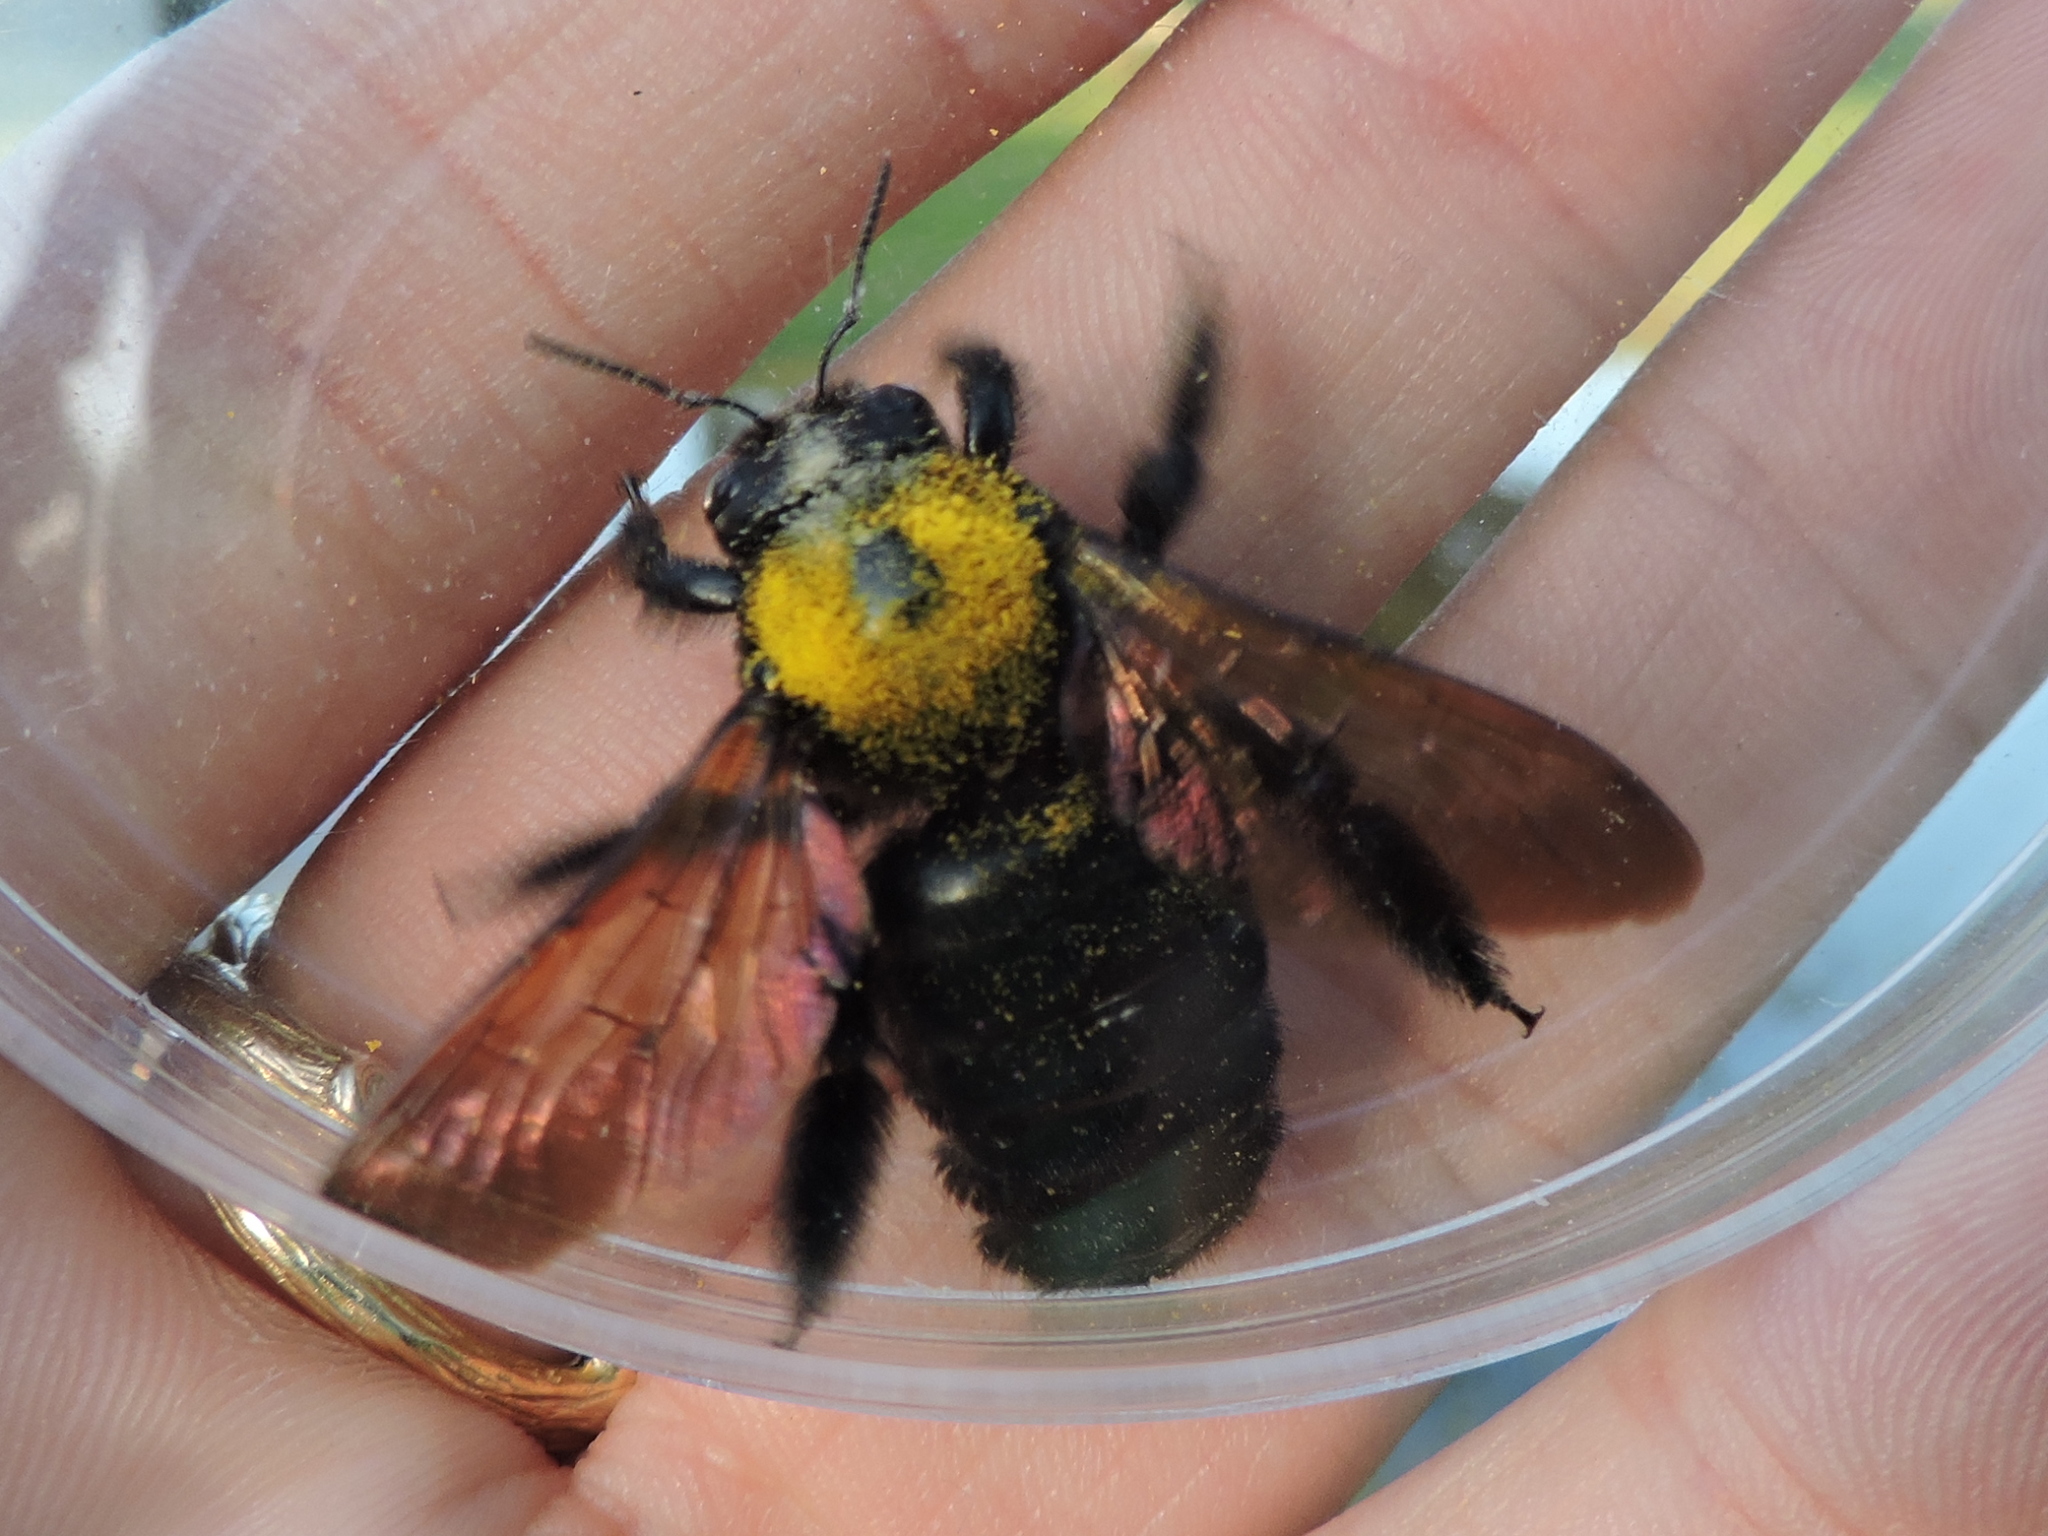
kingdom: Animalia
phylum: Arthropoda
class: Insecta
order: Hymenoptera
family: Apidae
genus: Xylocopa
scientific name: Xylocopa sonorina
